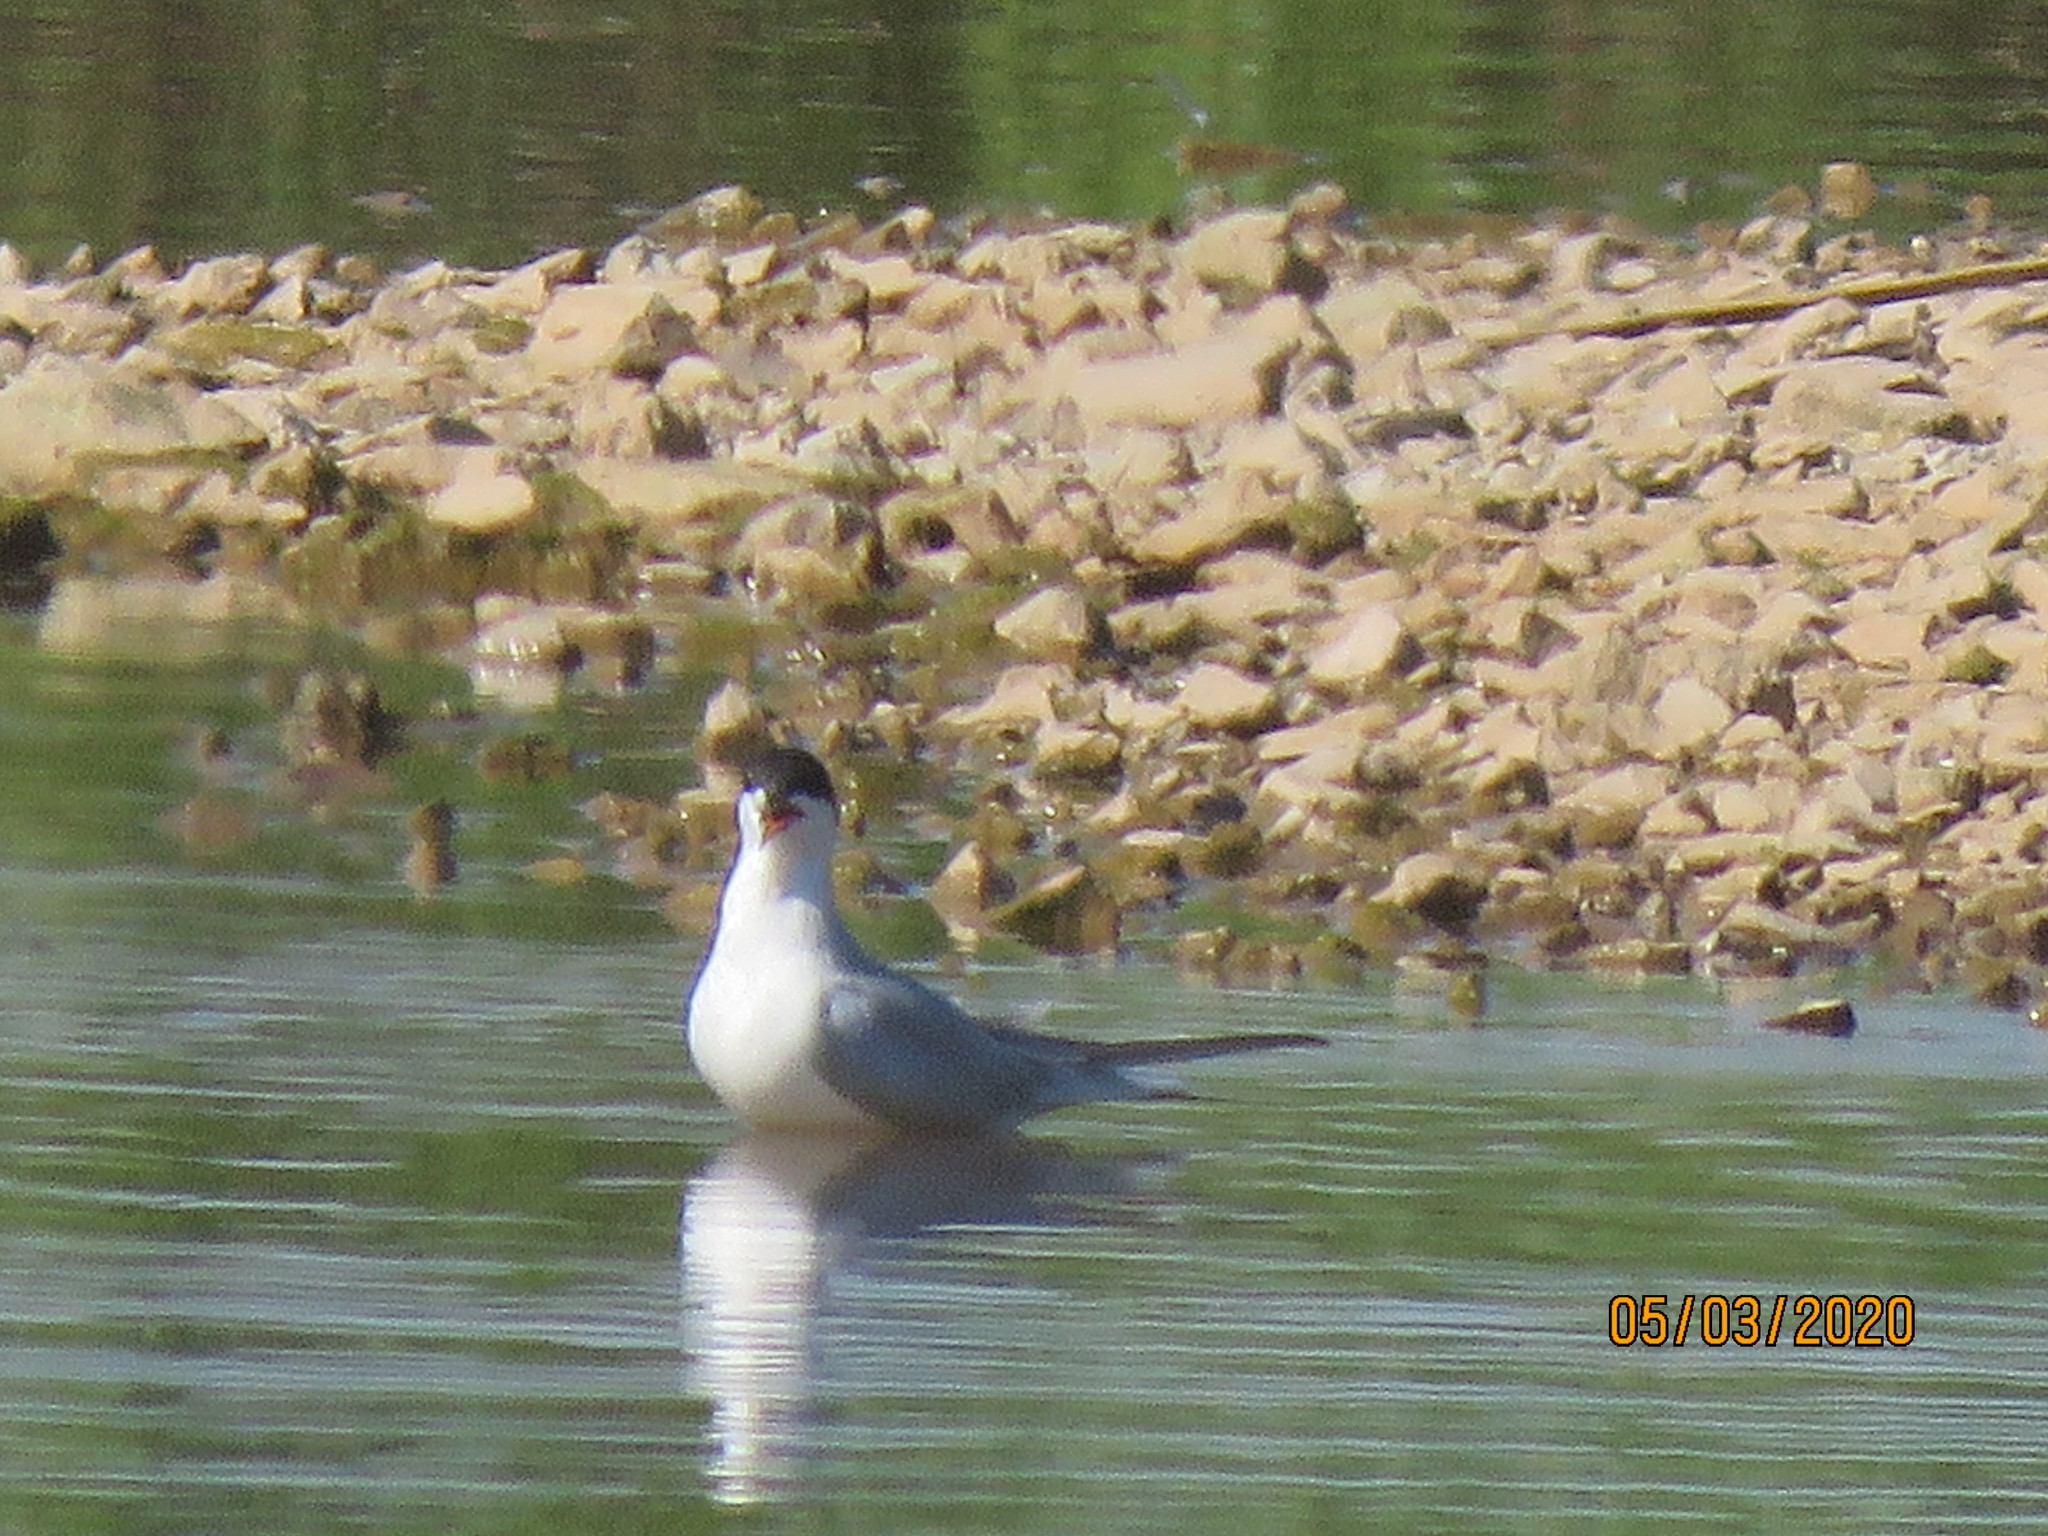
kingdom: Animalia
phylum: Chordata
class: Aves
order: Charadriiformes
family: Laridae
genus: Sterna
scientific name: Sterna forsteri
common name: Forster's tern
